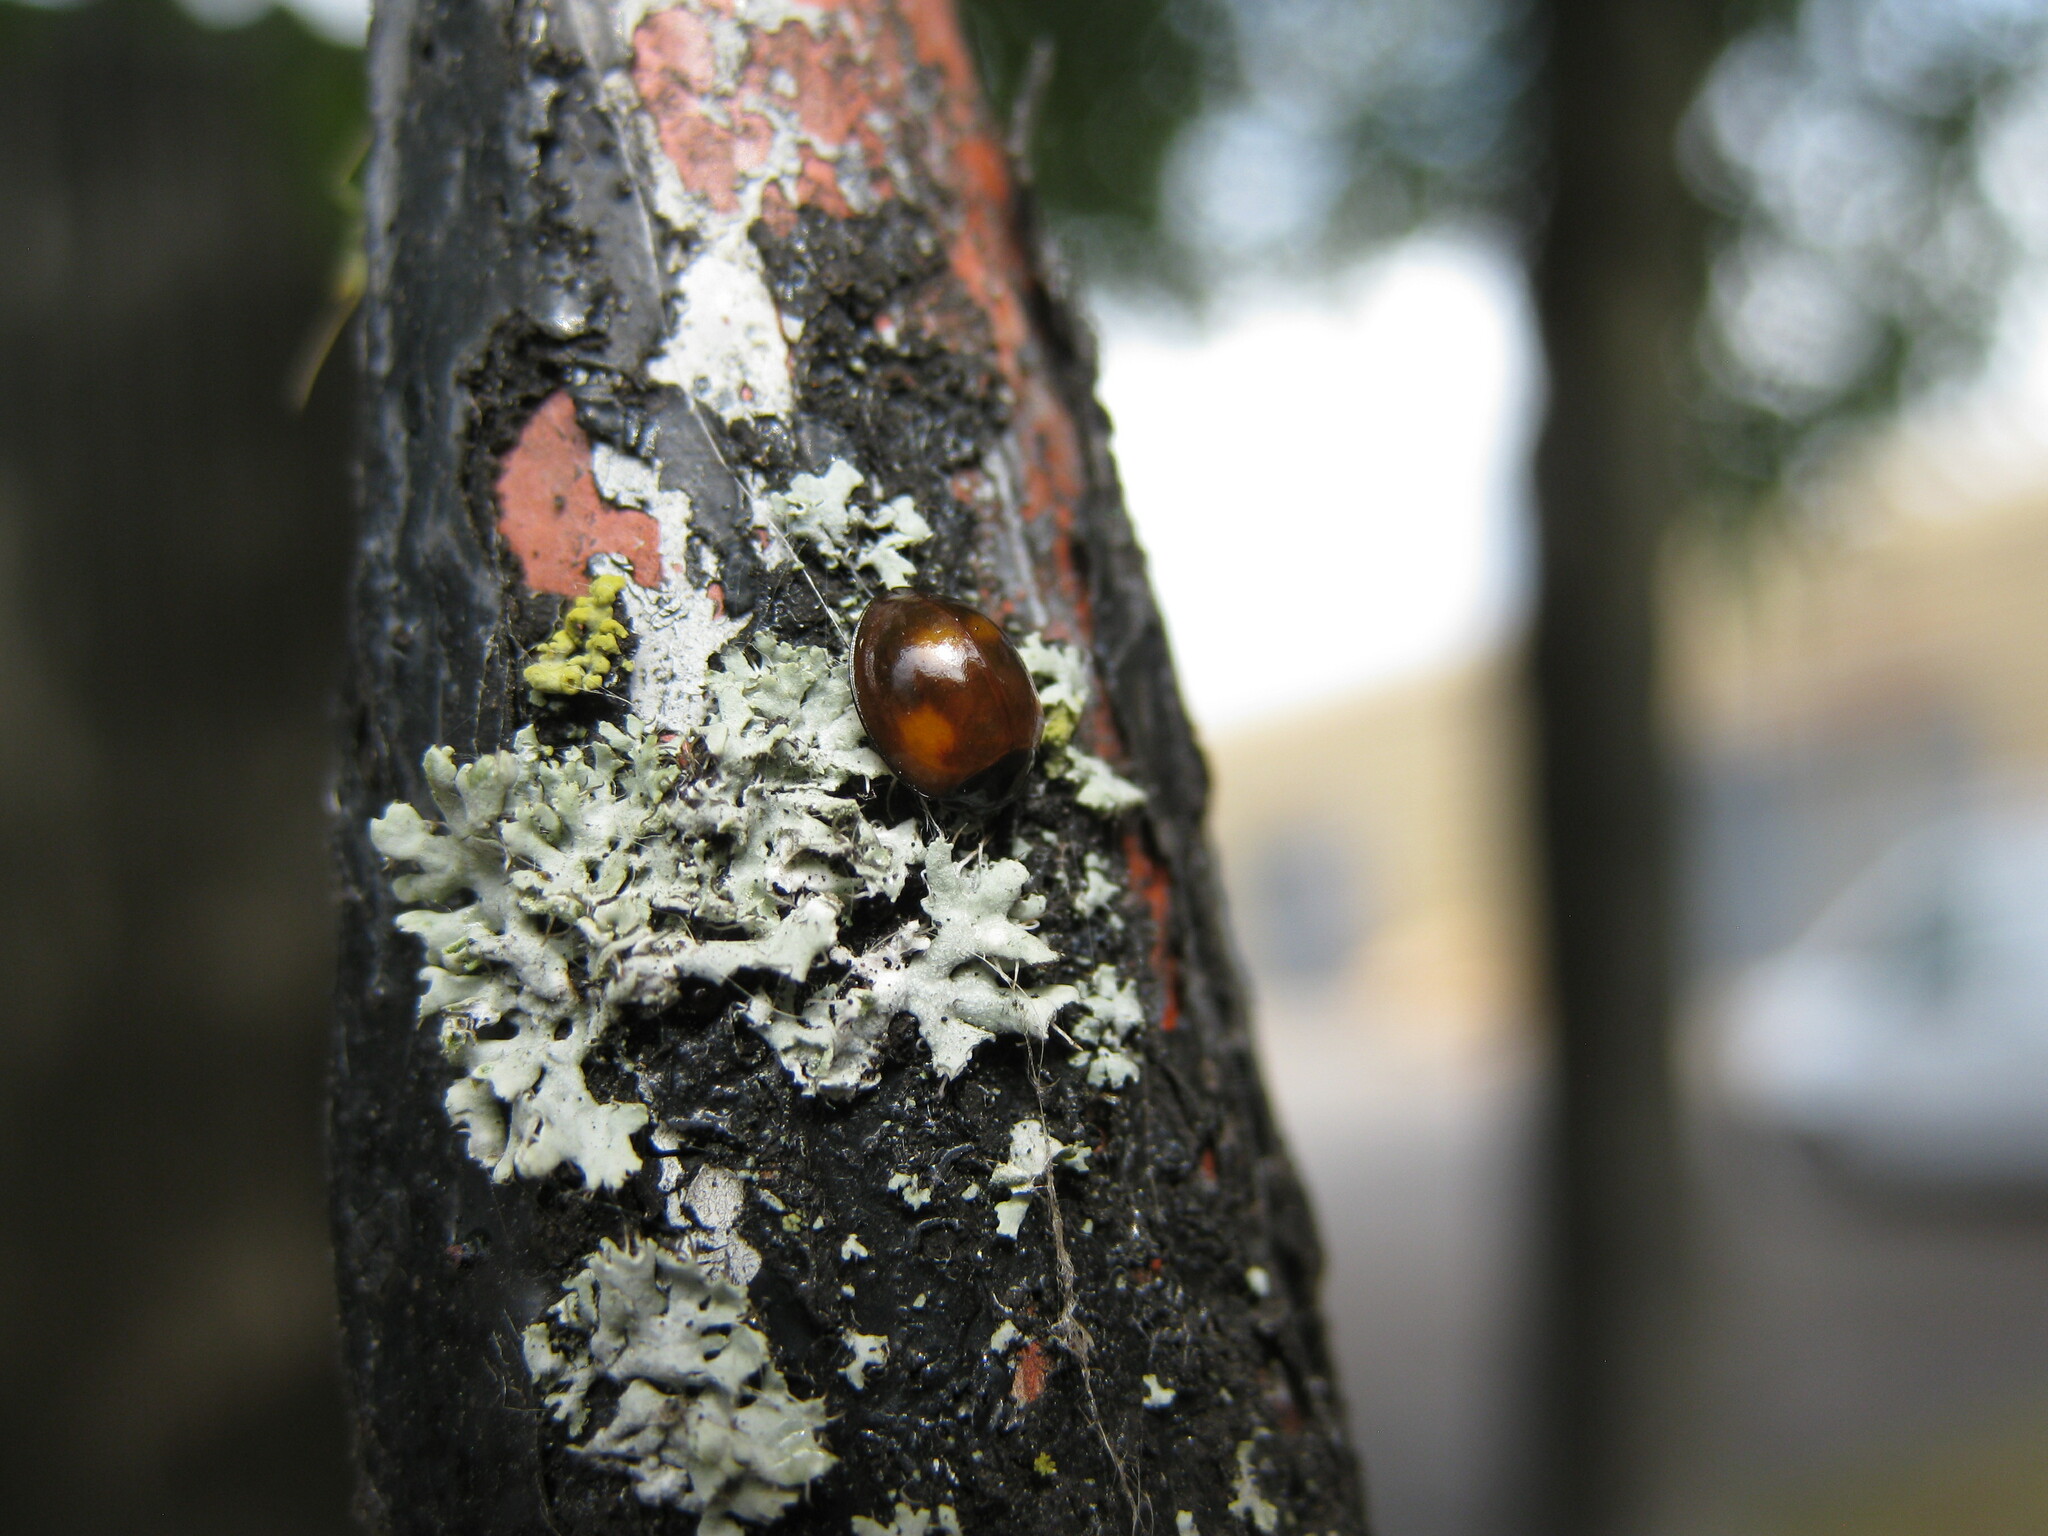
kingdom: Animalia
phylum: Arthropoda
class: Insecta
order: Coleoptera
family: Coccinellidae
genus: Brumus
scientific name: Brumus quadripustulatus
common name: Ladybird beetle
